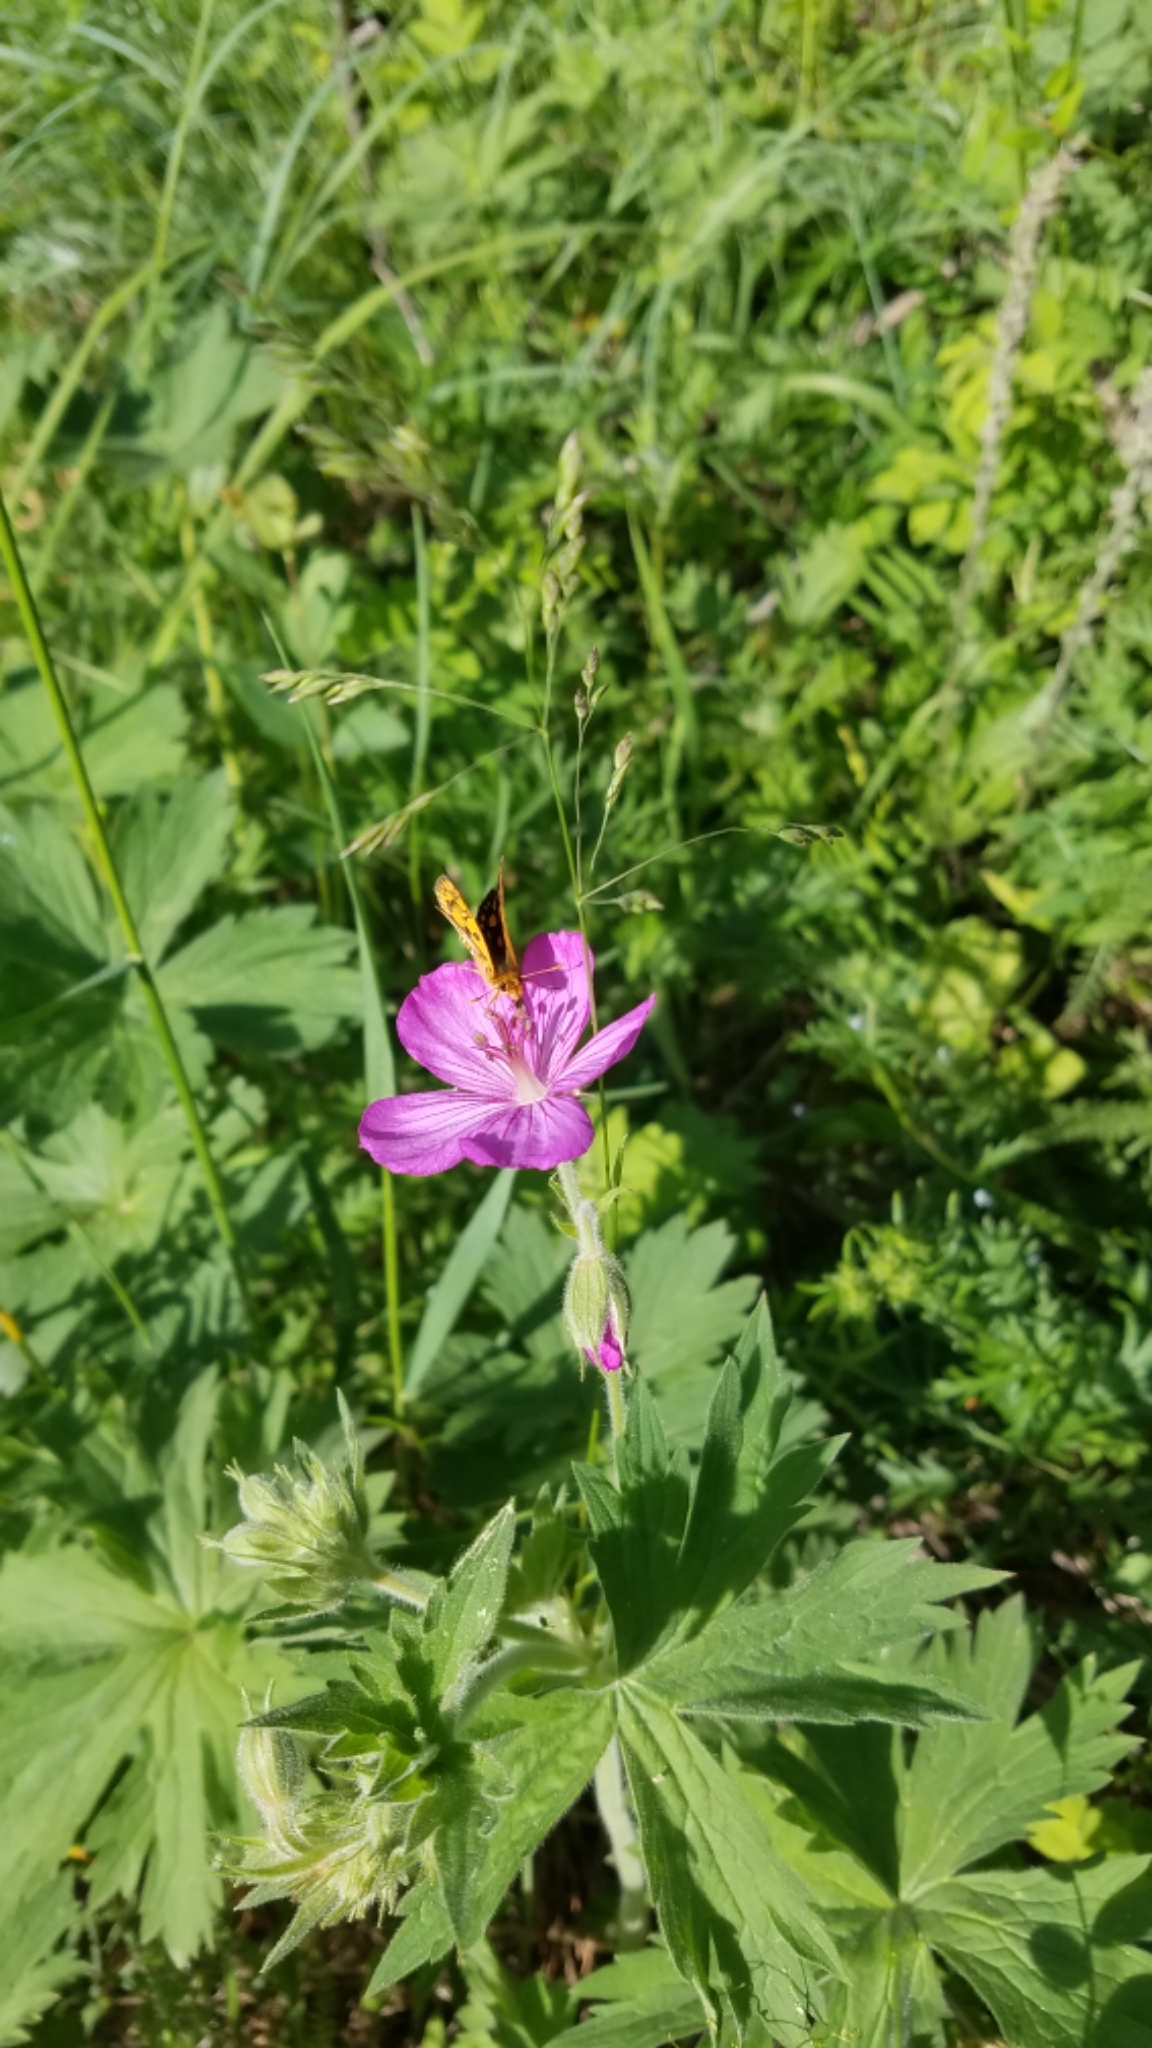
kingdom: Animalia
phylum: Arthropoda
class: Insecta
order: Lepidoptera
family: Hesperiidae
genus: Carterocephalus
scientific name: Carterocephalus skada
